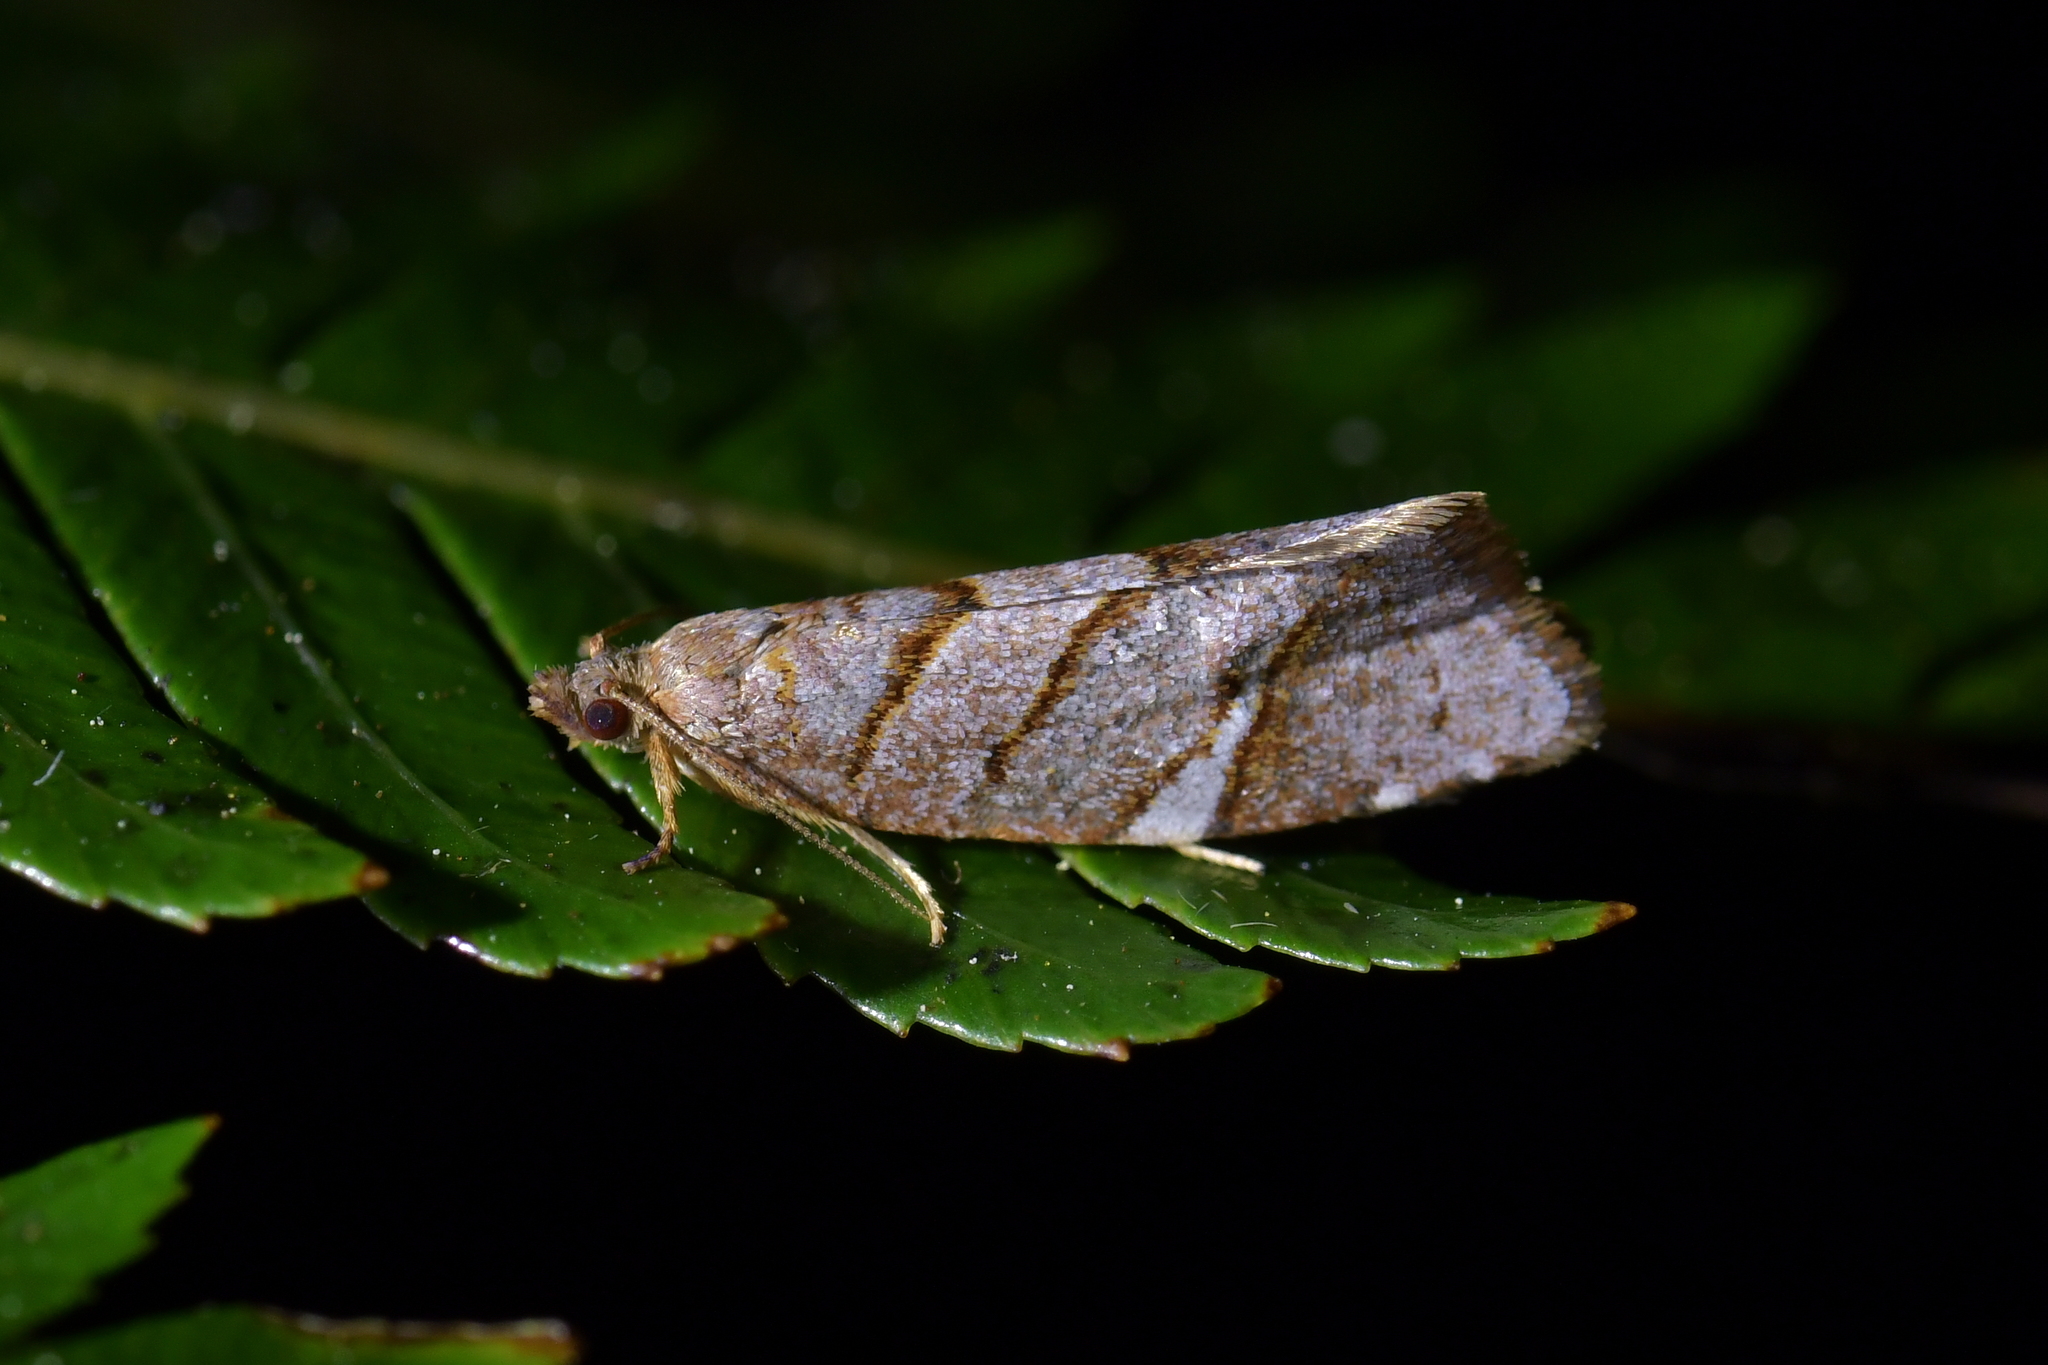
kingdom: Animalia
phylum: Arthropoda
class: Insecta
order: Lepidoptera
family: Tortricidae
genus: Ecclitica
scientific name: Ecclitica torogramma
